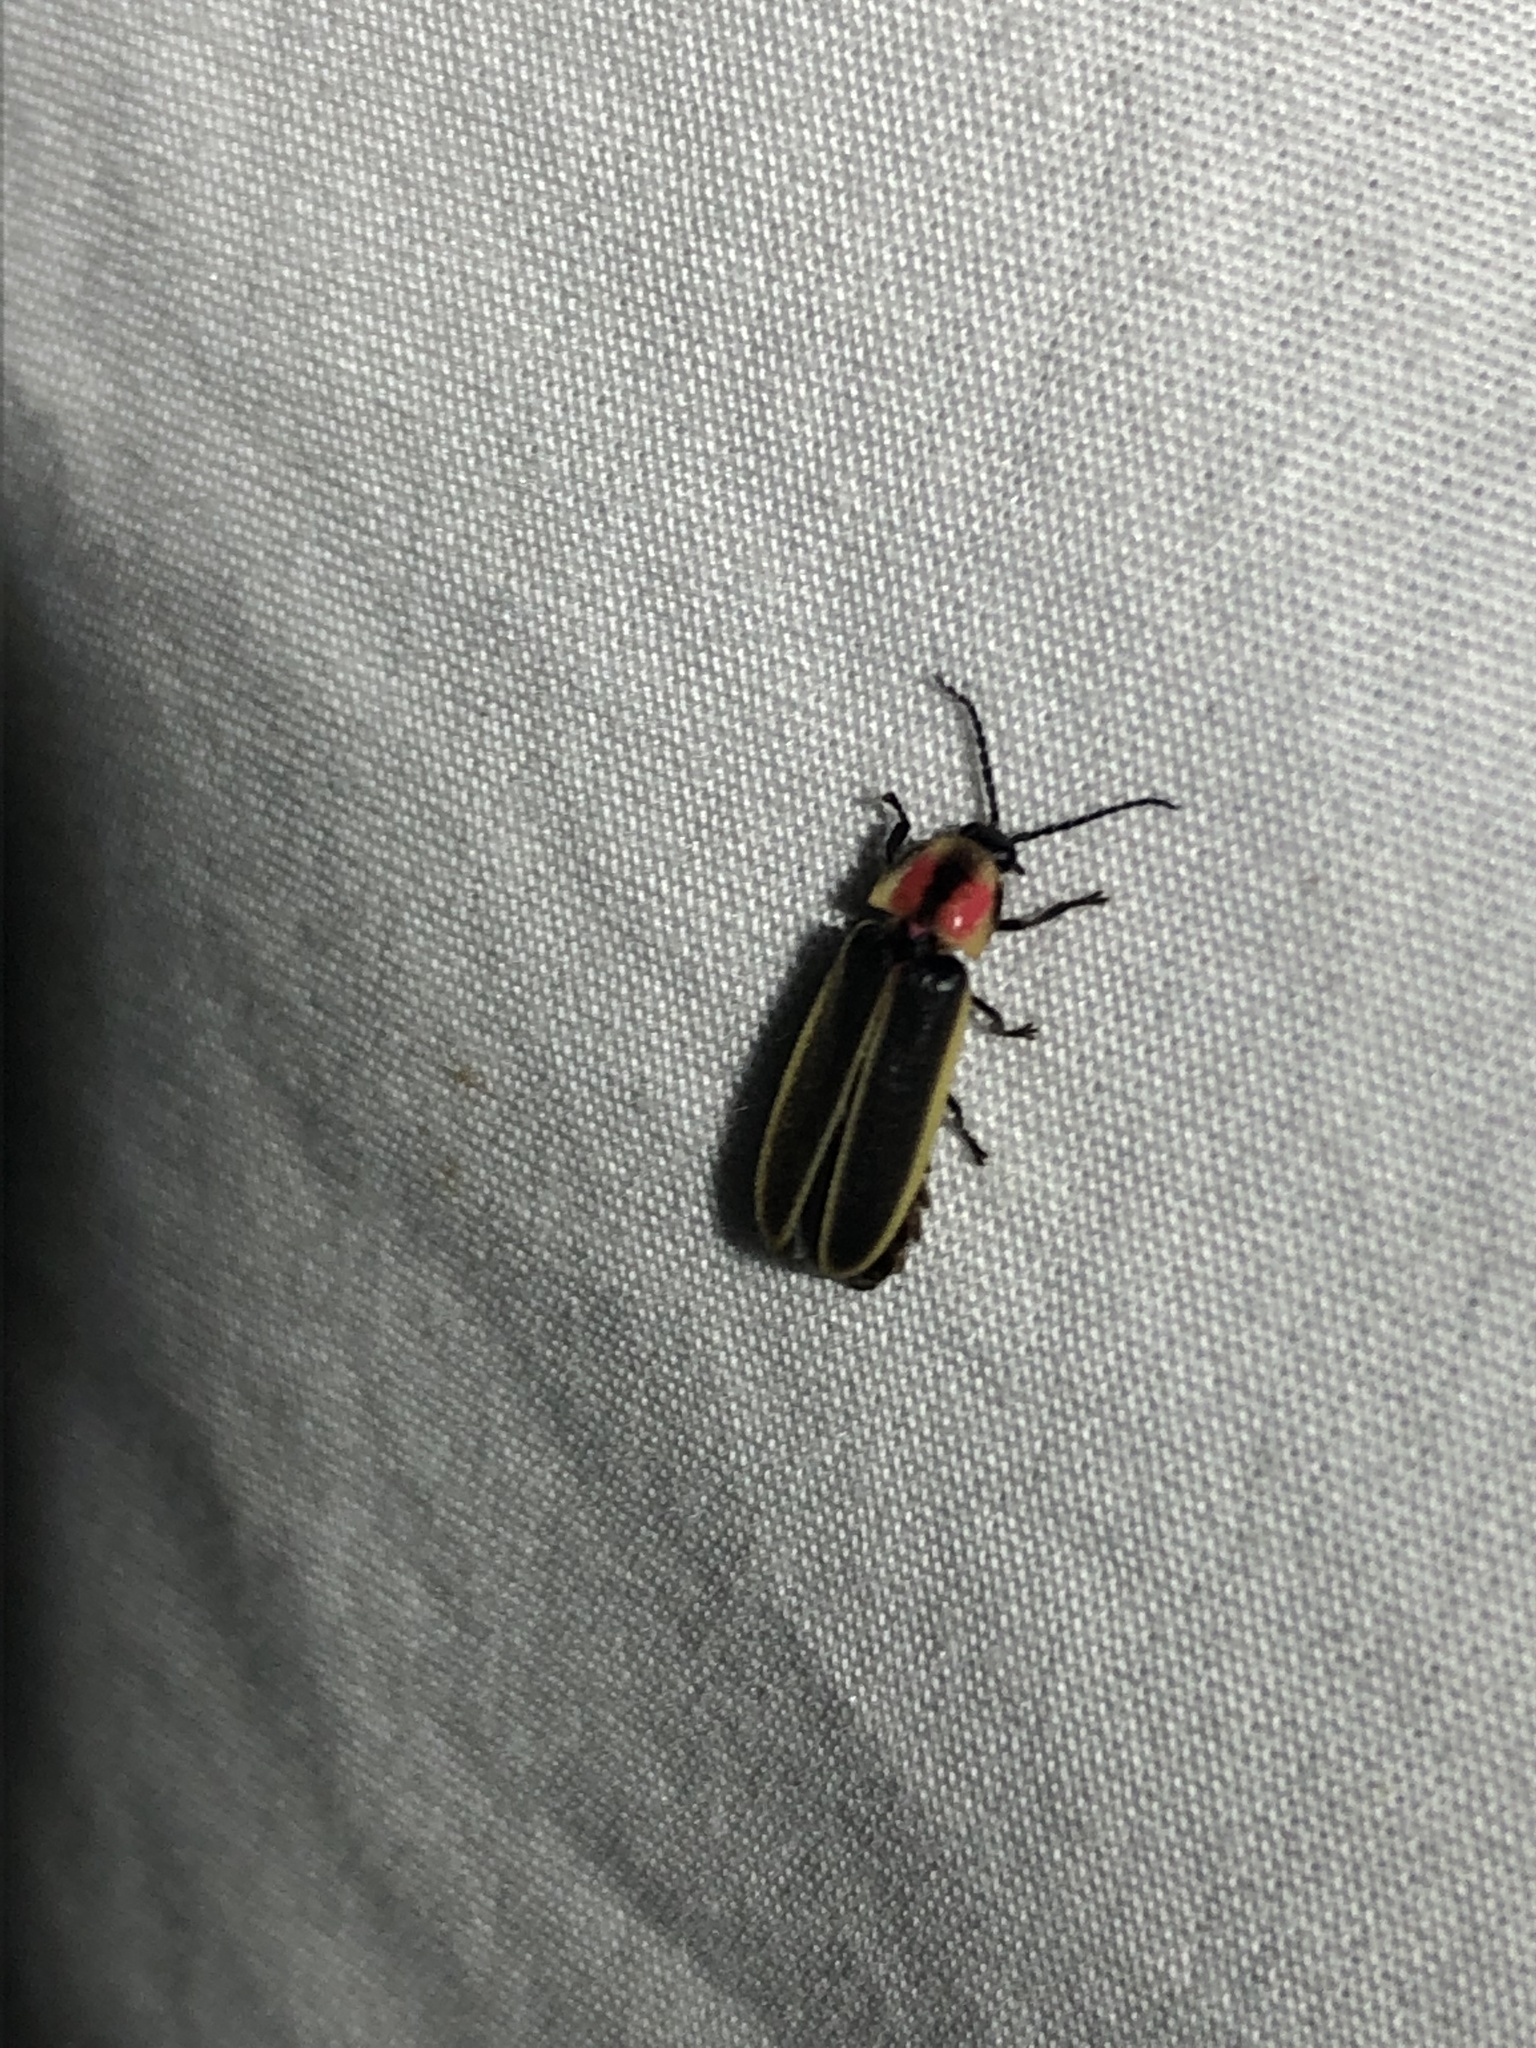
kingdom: Animalia
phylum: Arthropoda
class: Insecta
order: Coleoptera
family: Lampyridae
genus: Photinus
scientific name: Photinus knulli
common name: Fall southwest firefly
